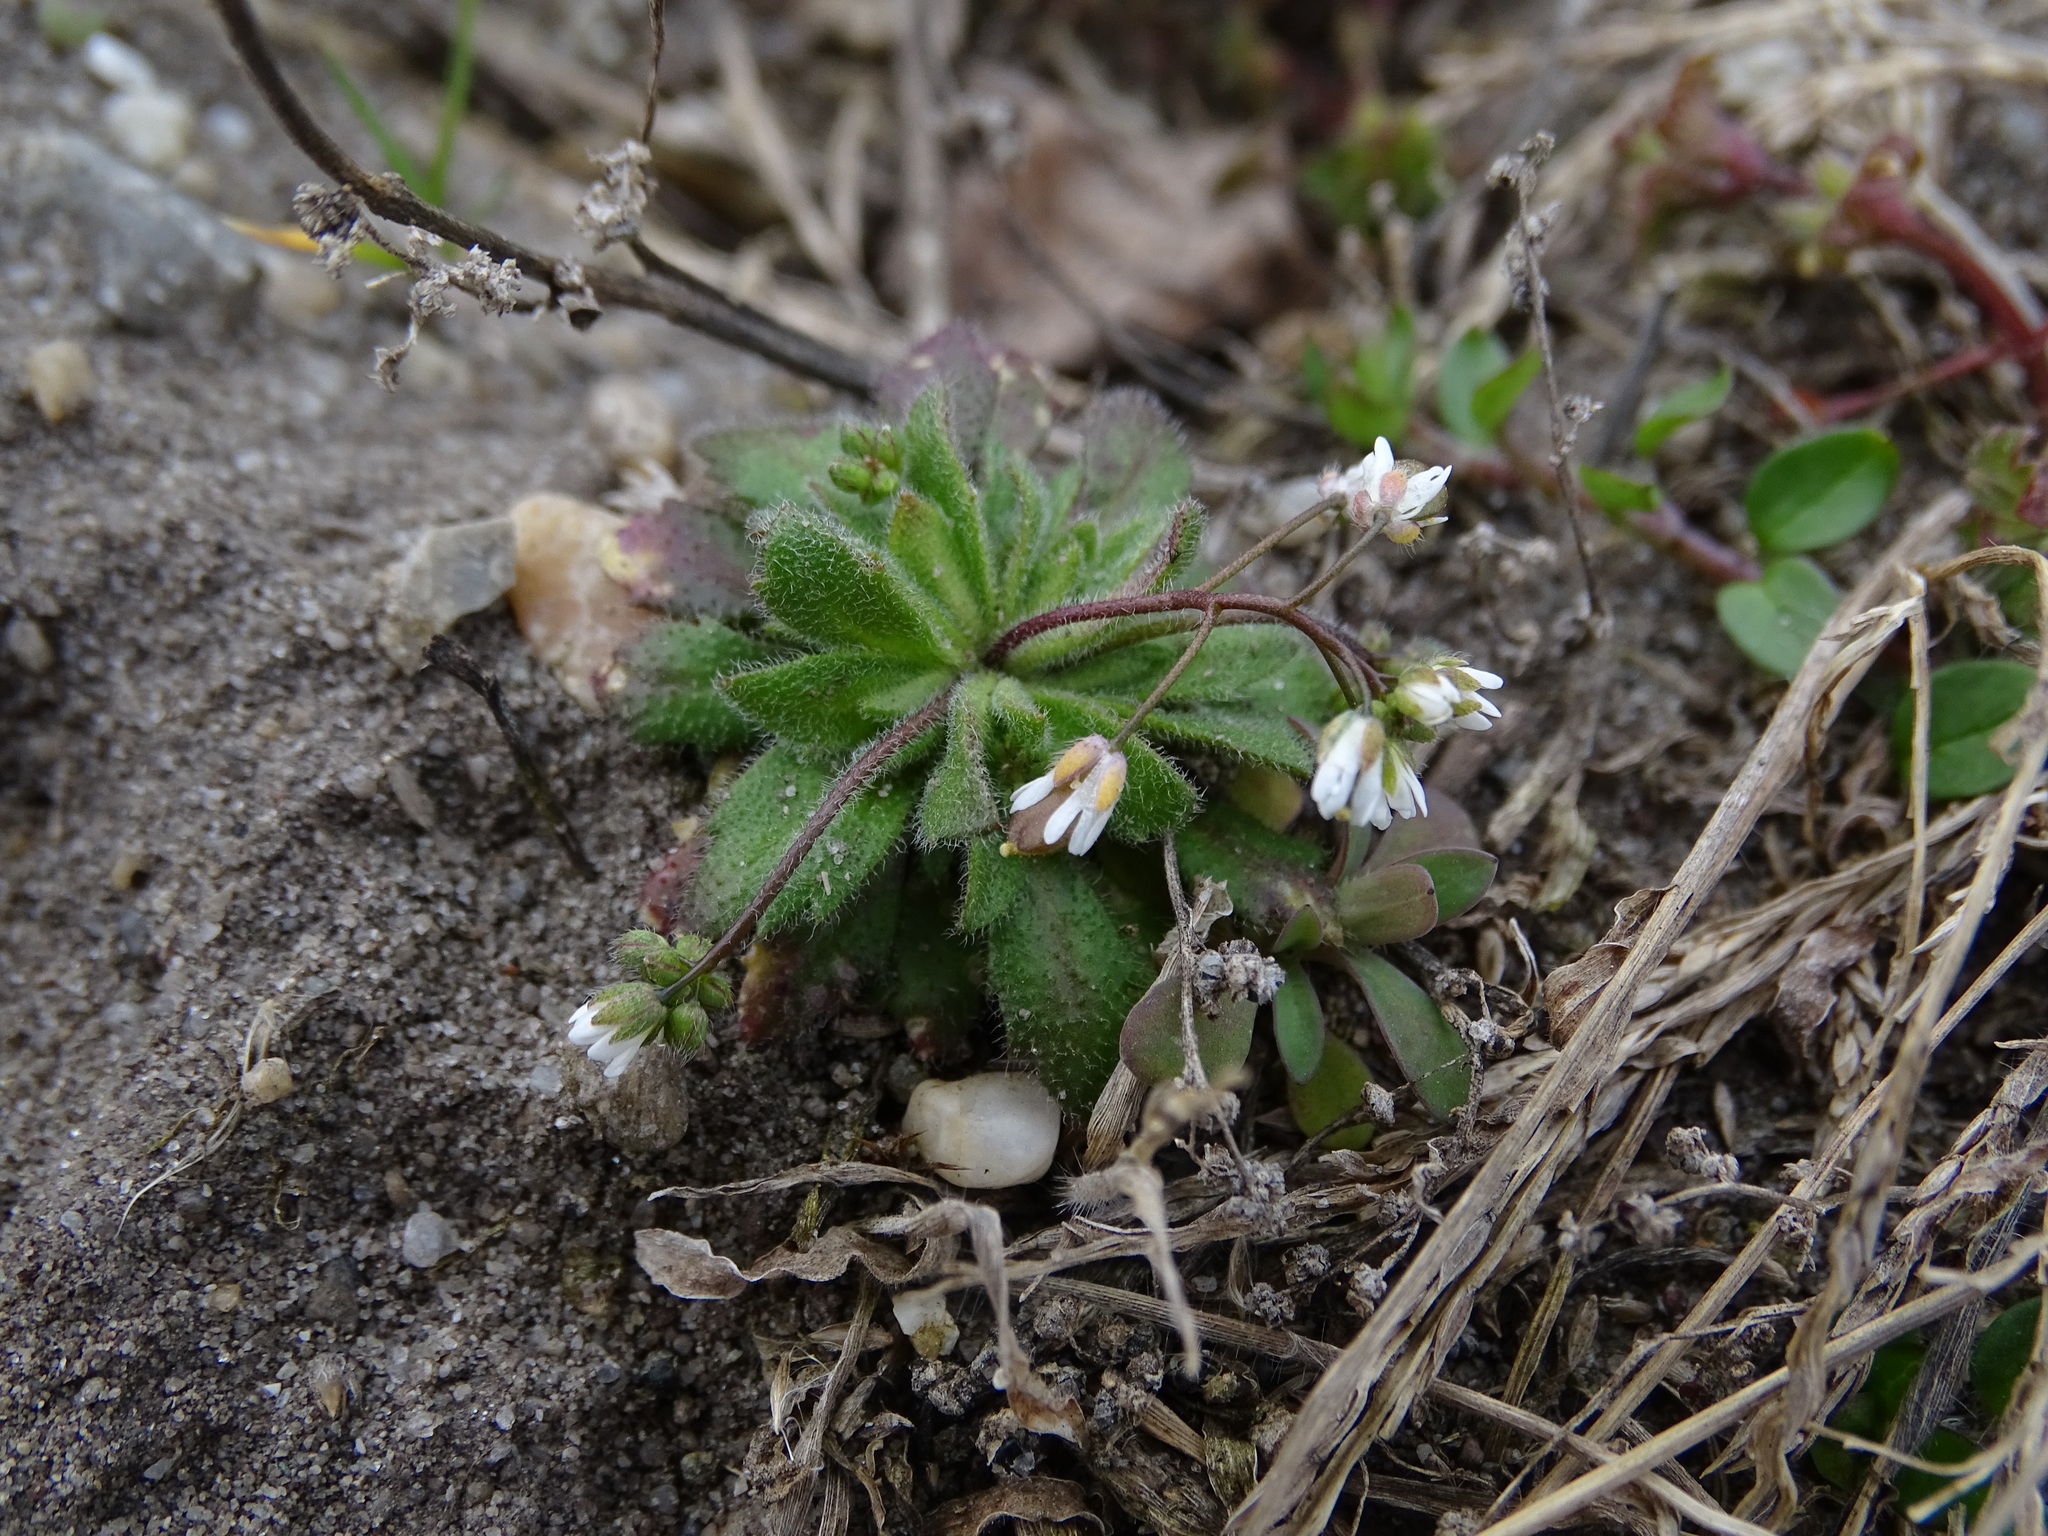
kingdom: Plantae
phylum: Tracheophyta
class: Magnoliopsida
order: Brassicales
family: Brassicaceae
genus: Draba
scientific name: Draba verna
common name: Spring draba
